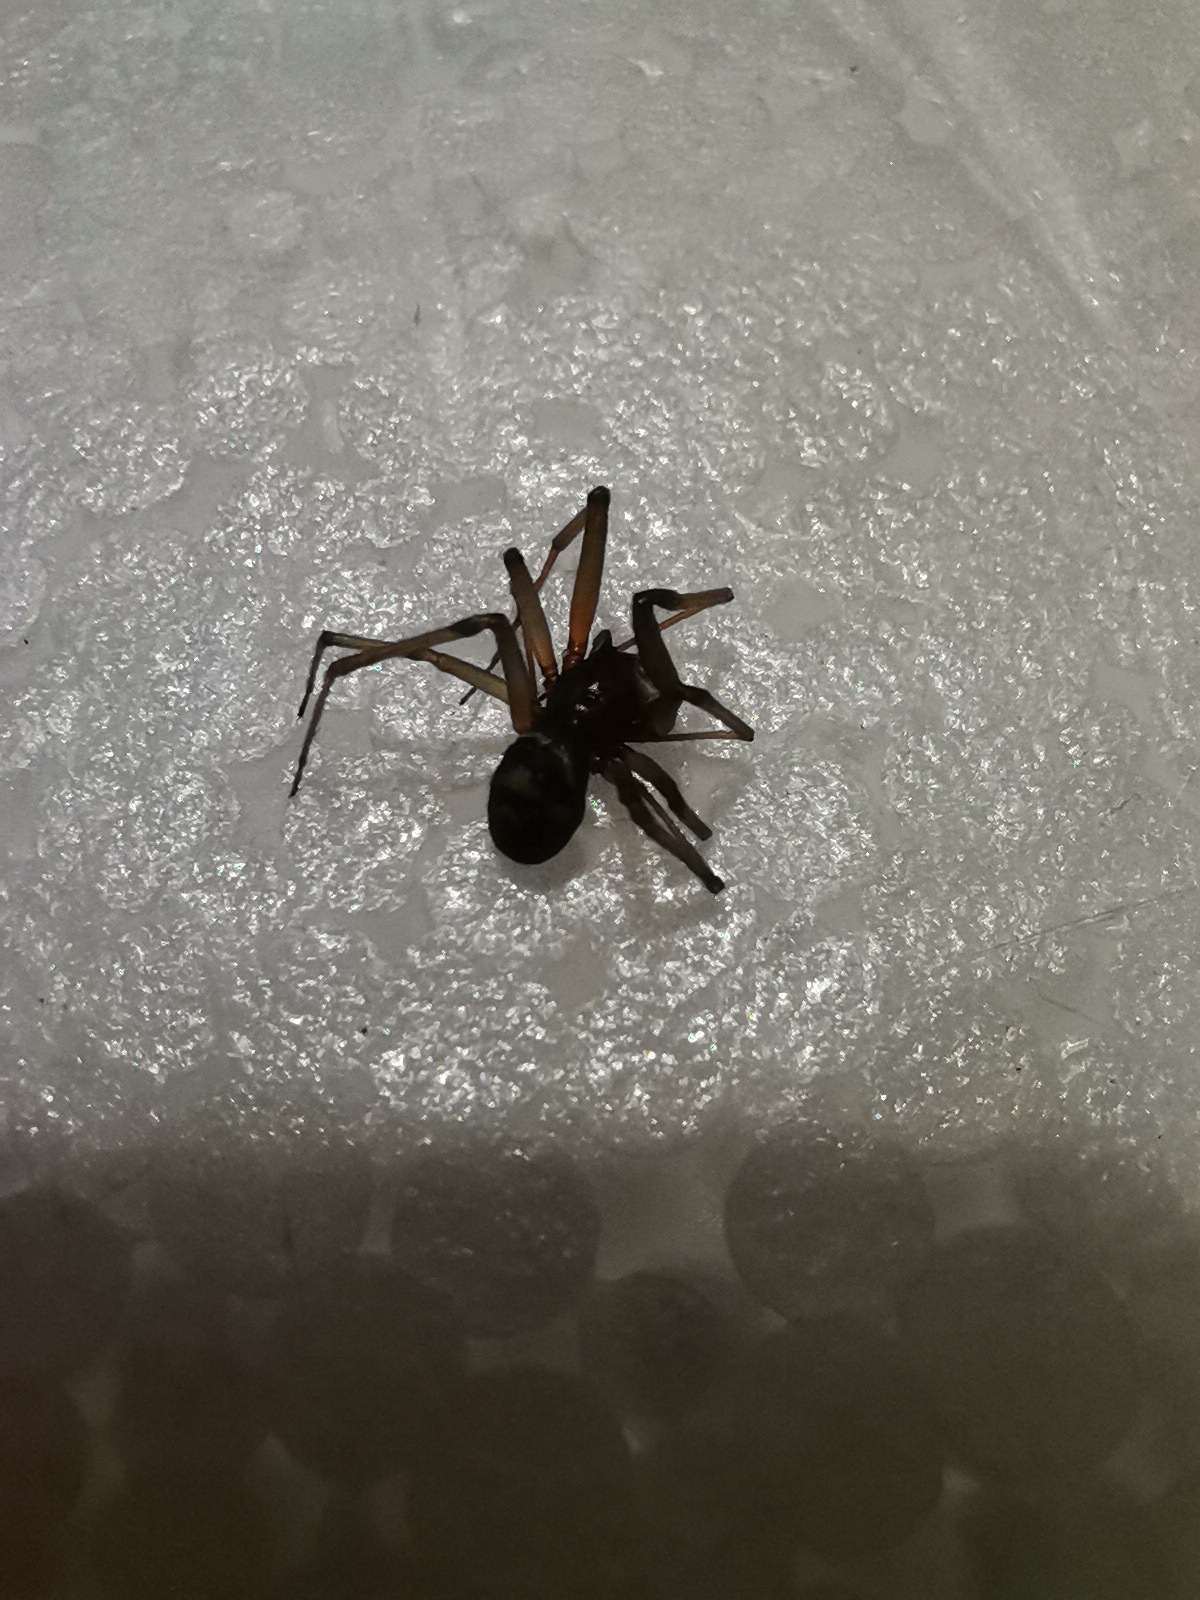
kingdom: Animalia
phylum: Arthropoda
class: Arachnida
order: Araneae
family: Theridiidae
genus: Steatoda
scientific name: Steatoda grossa
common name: False black widow
